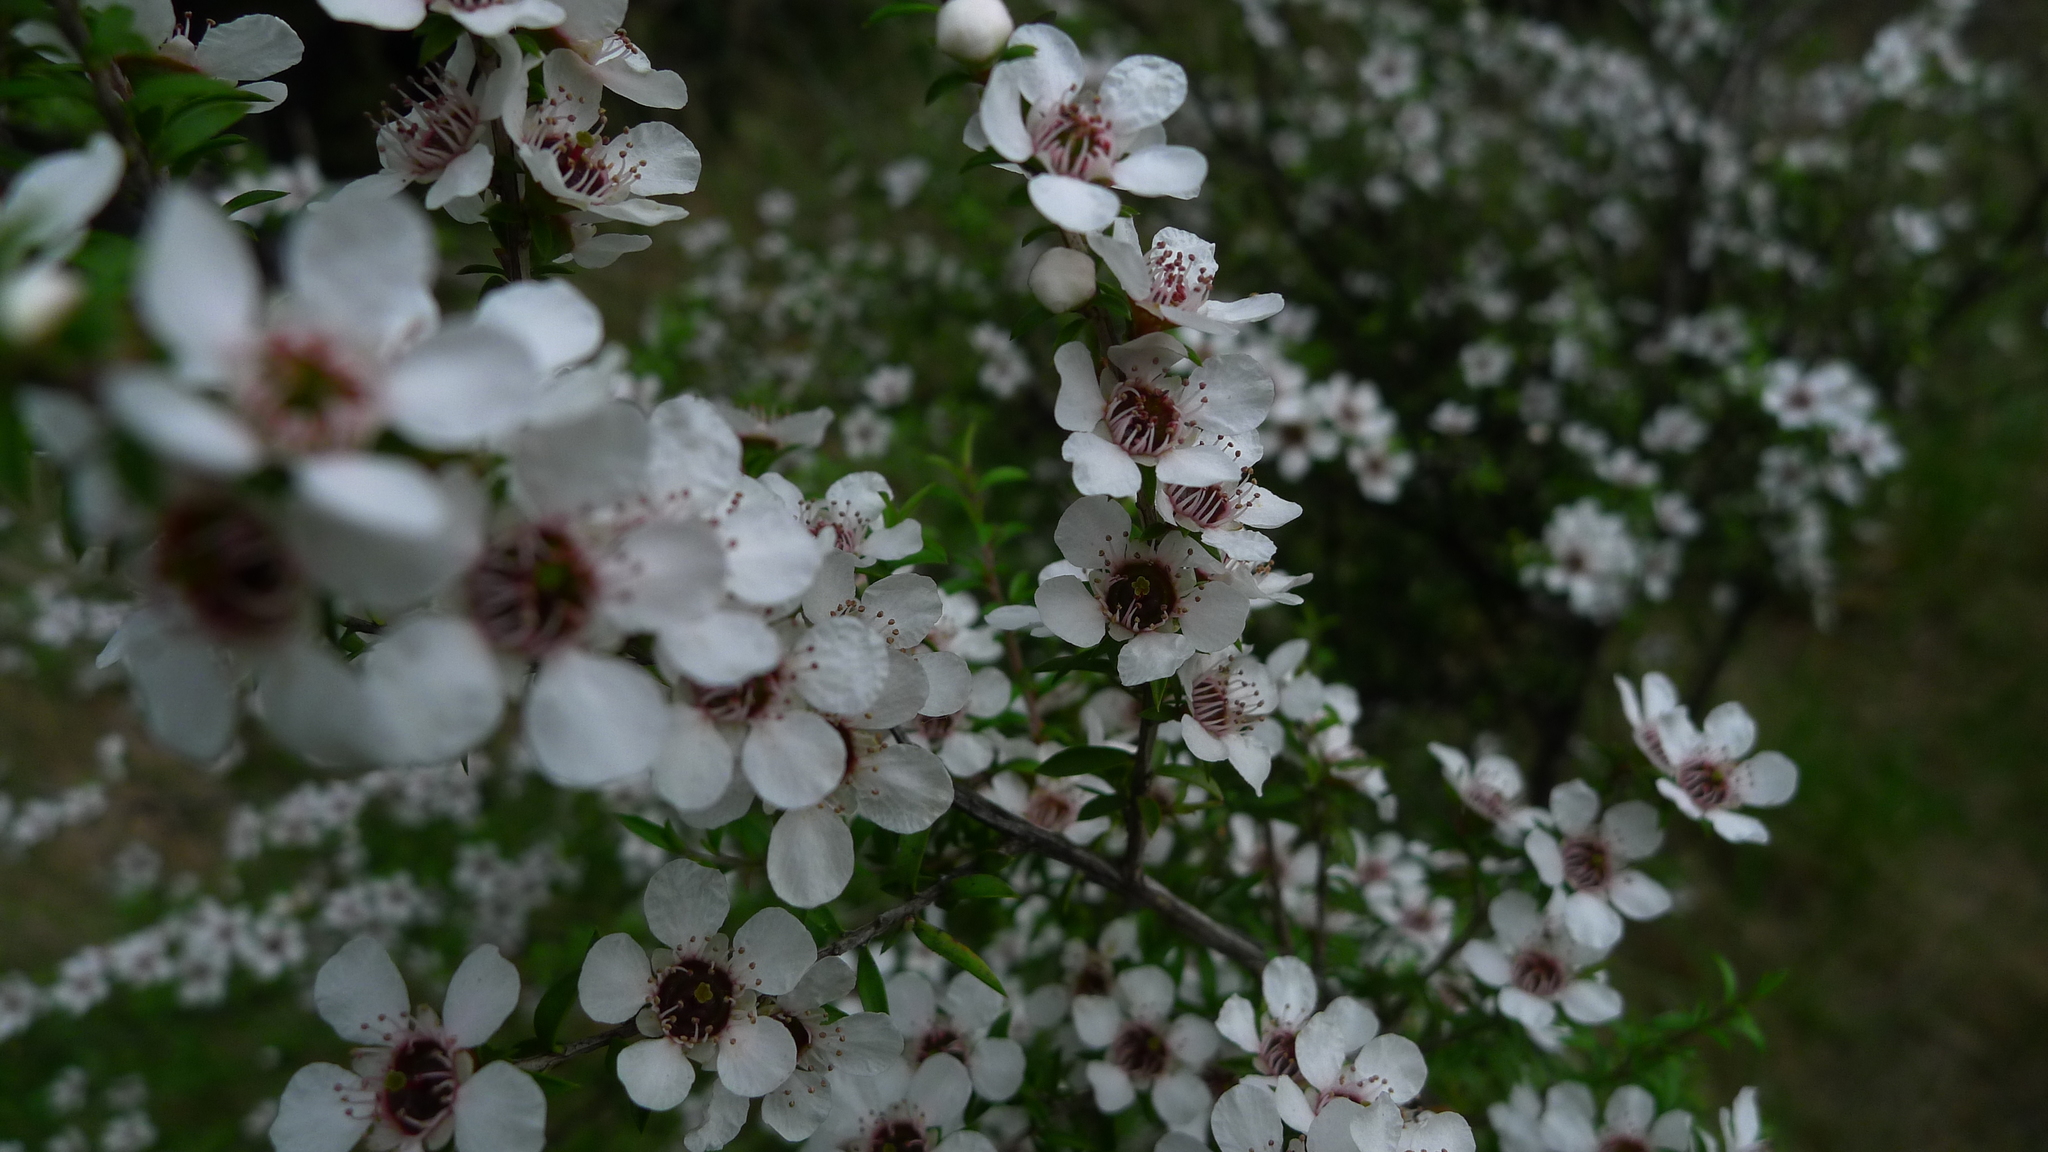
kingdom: Plantae
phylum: Tracheophyta
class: Magnoliopsida
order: Myrtales
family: Myrtaceae
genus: Leptospermum
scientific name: Leptospermum scoparium
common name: Broom tea-tree
